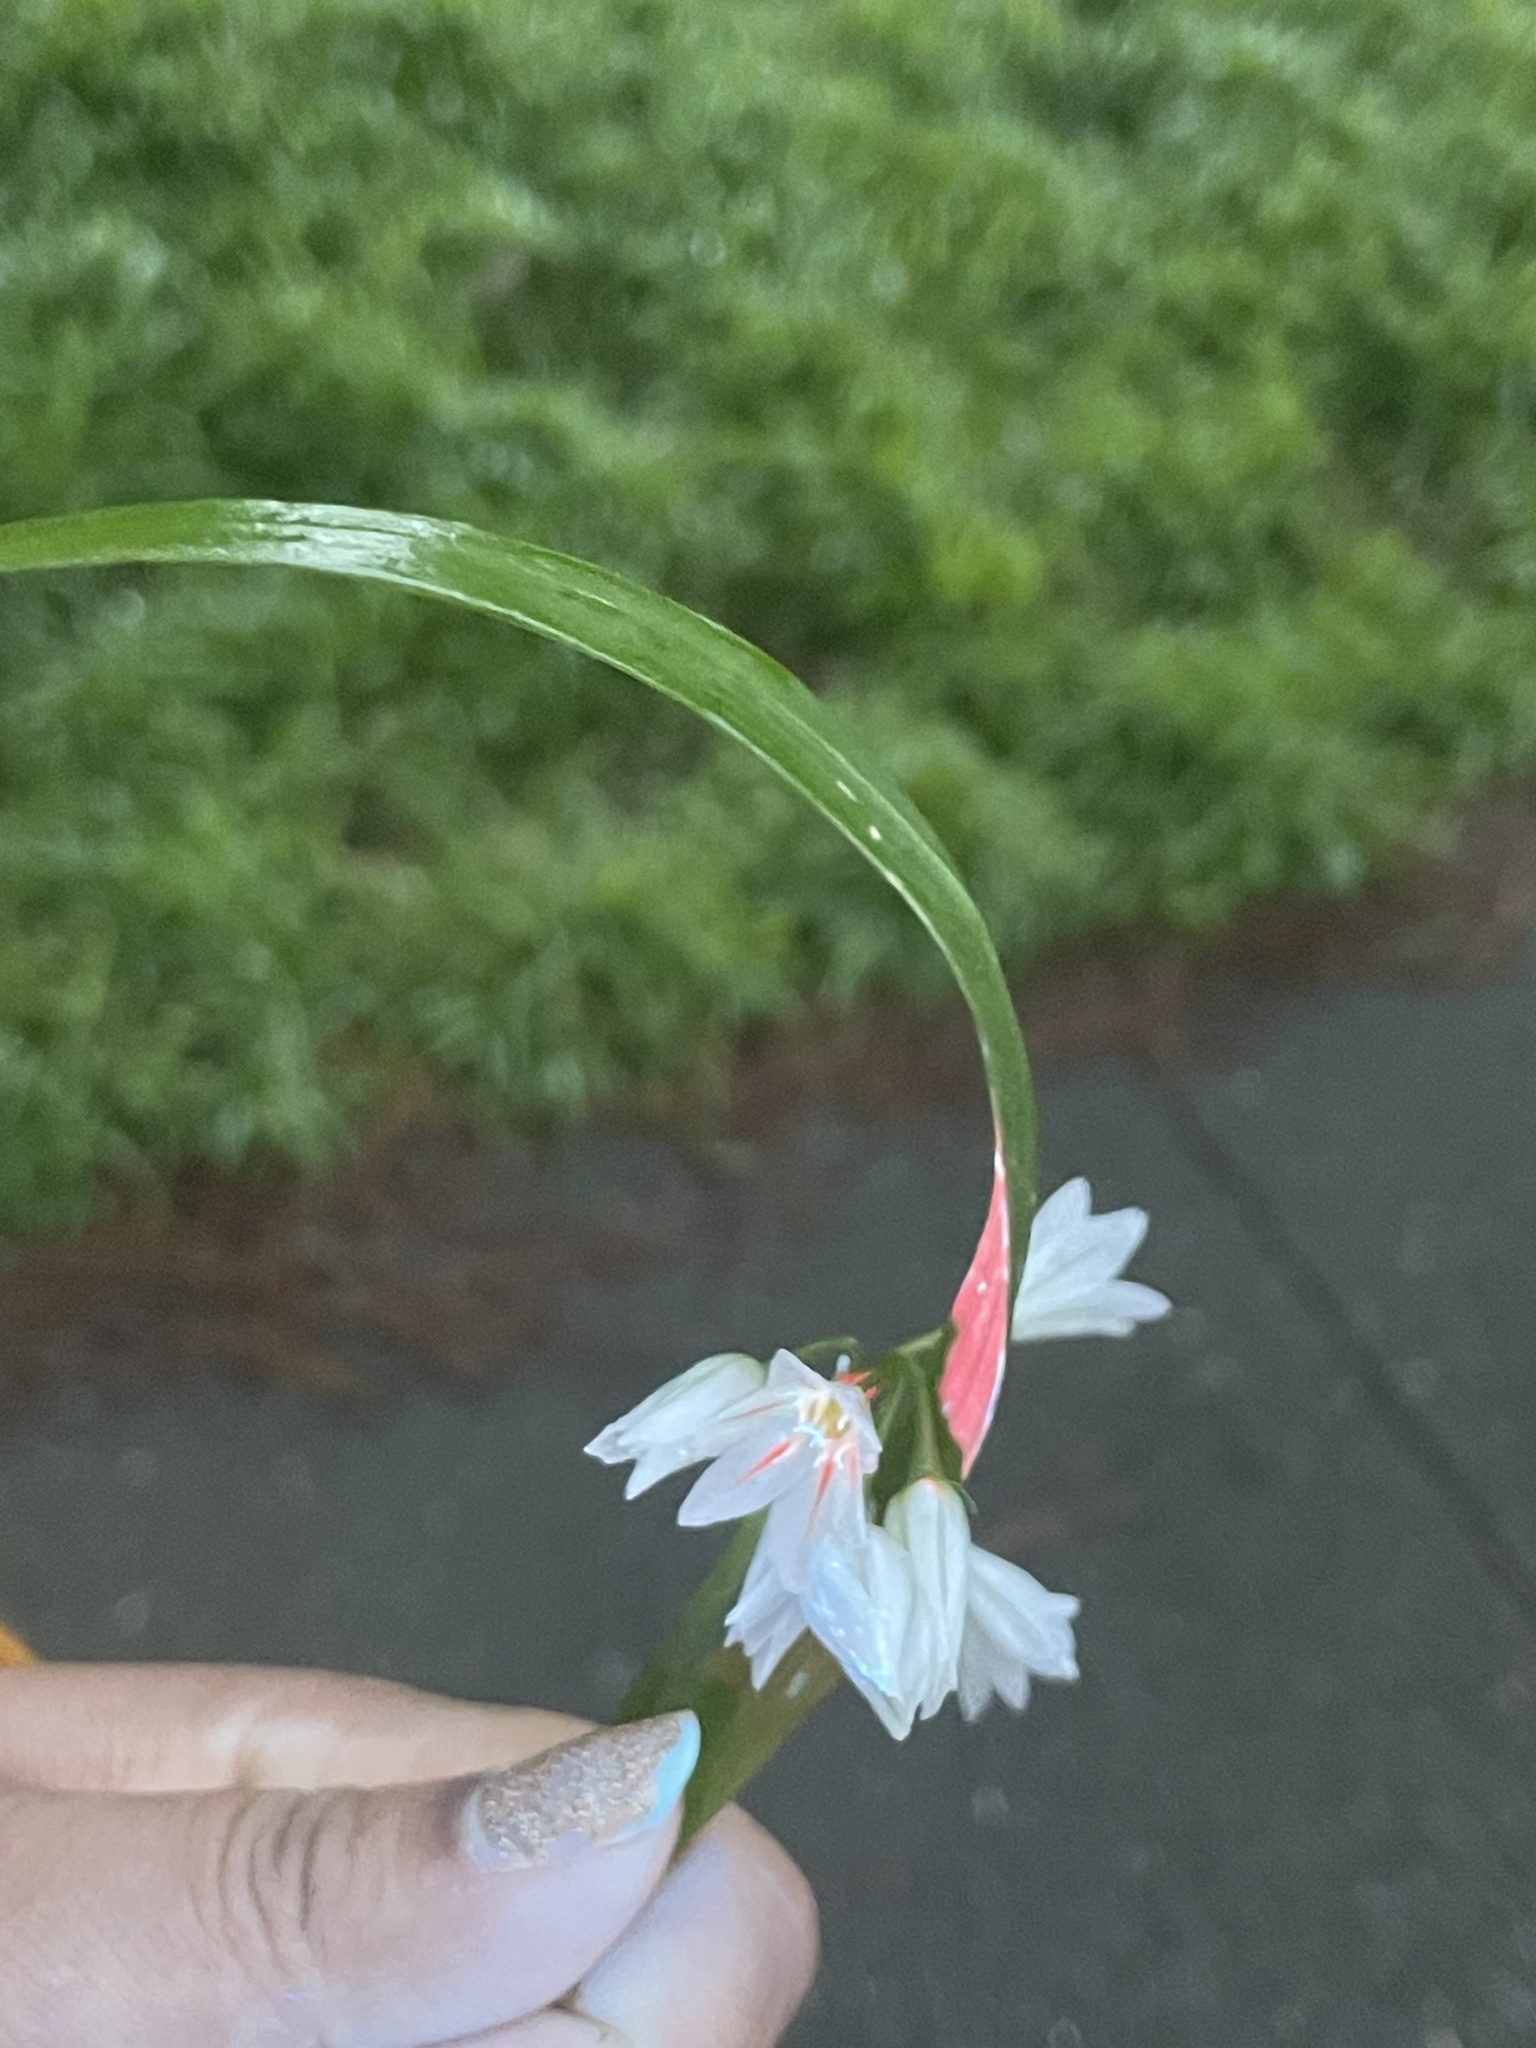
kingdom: Plantae
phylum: Tracheophyta
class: Liliopsida
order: Asparagales
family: Amaryllidaceae
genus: Allium
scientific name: Allium triquetrum
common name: Three-cornered garlic
